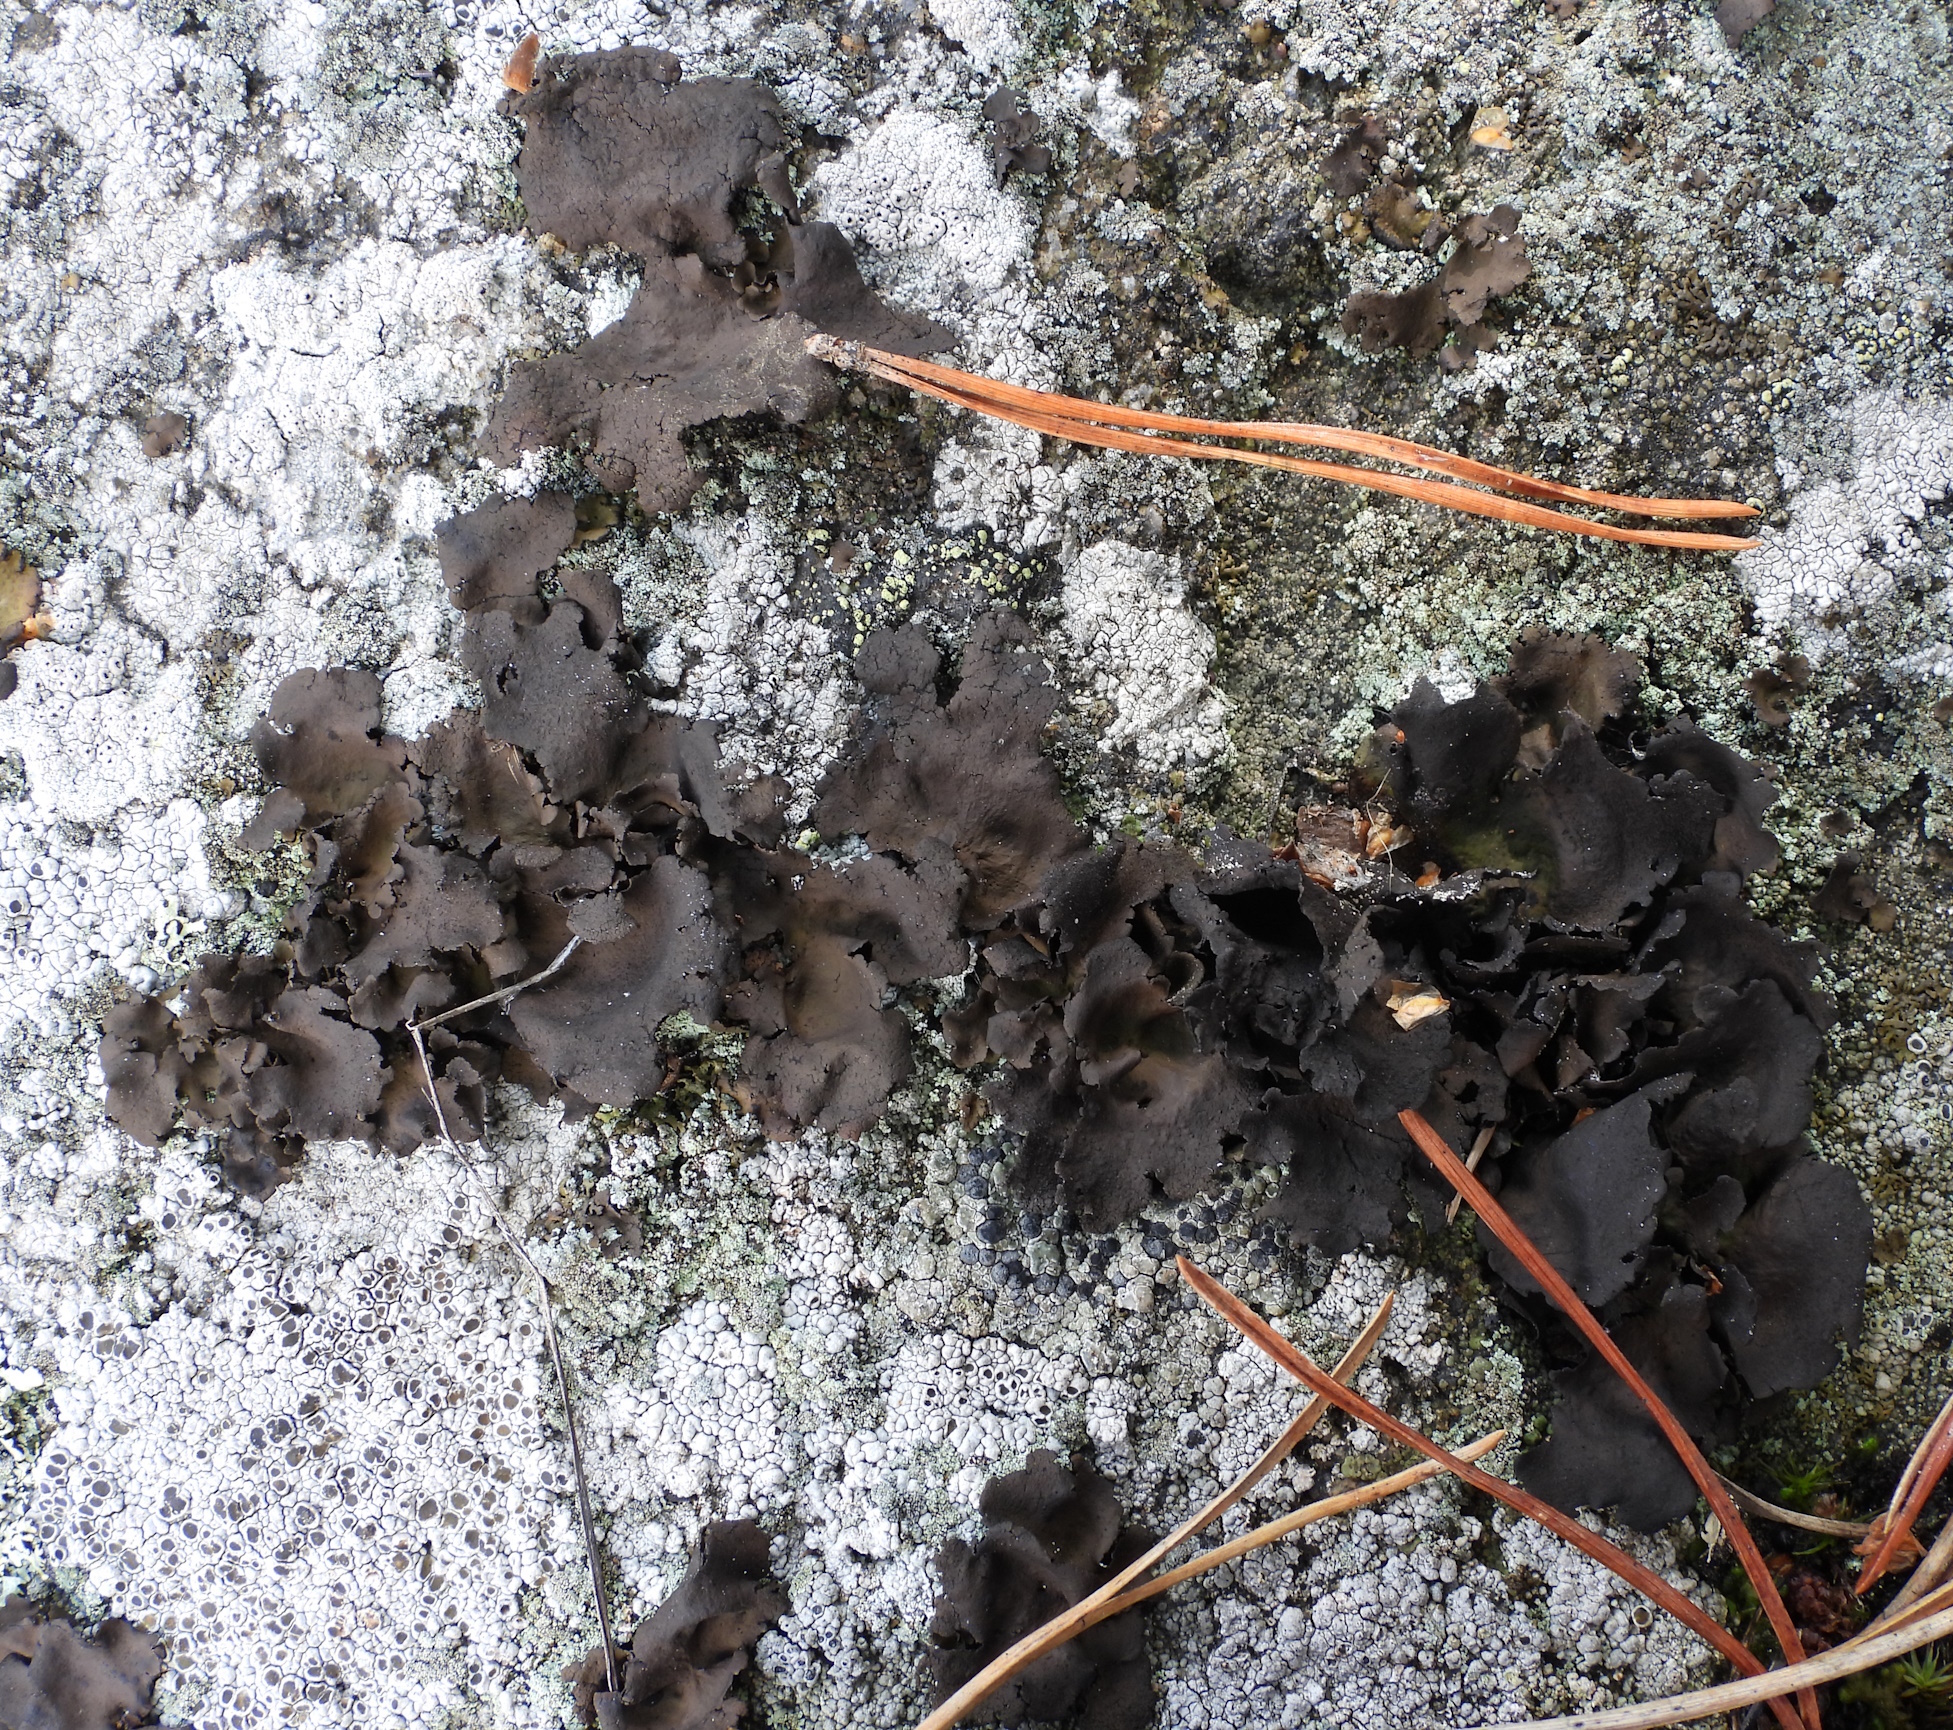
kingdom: Fungi
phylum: Ascomycota
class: Lecanoromycetes
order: Umbilicariales
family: Umbilicariaceae
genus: Umbilicaria
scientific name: Umbilicaria polyphylla
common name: Petalled rocktripe lichen
